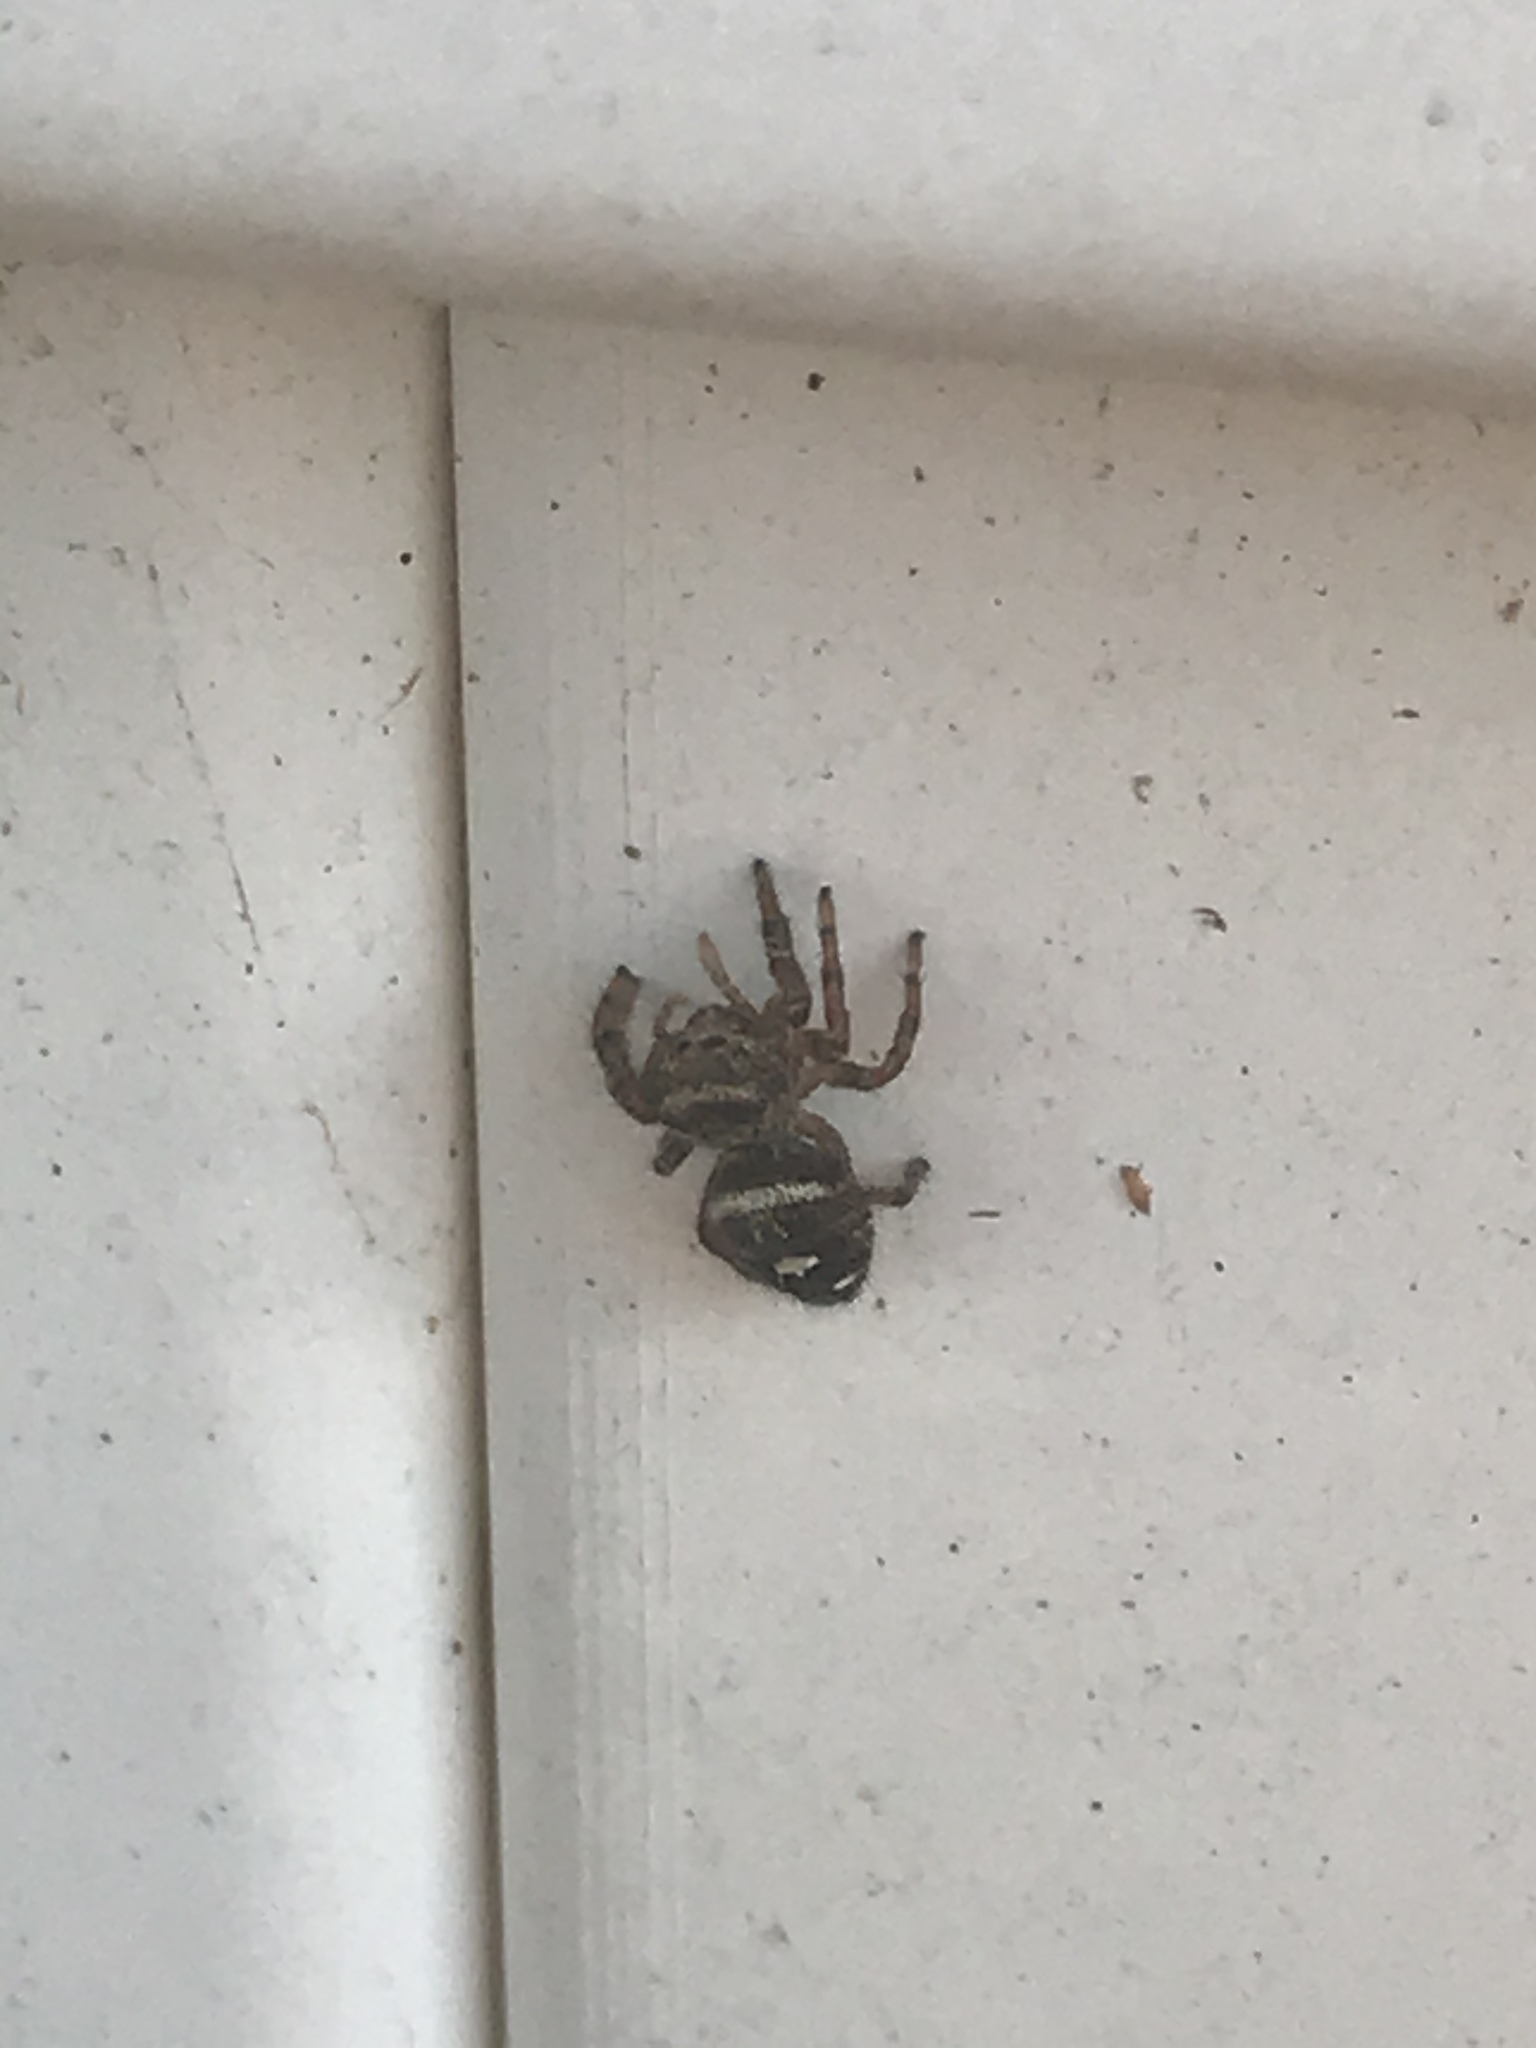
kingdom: Animalia
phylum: Arthropoda
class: Arachnida
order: Araneae
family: Salticidae
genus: Phidippus
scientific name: Phidippus audax
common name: Bold jumper
